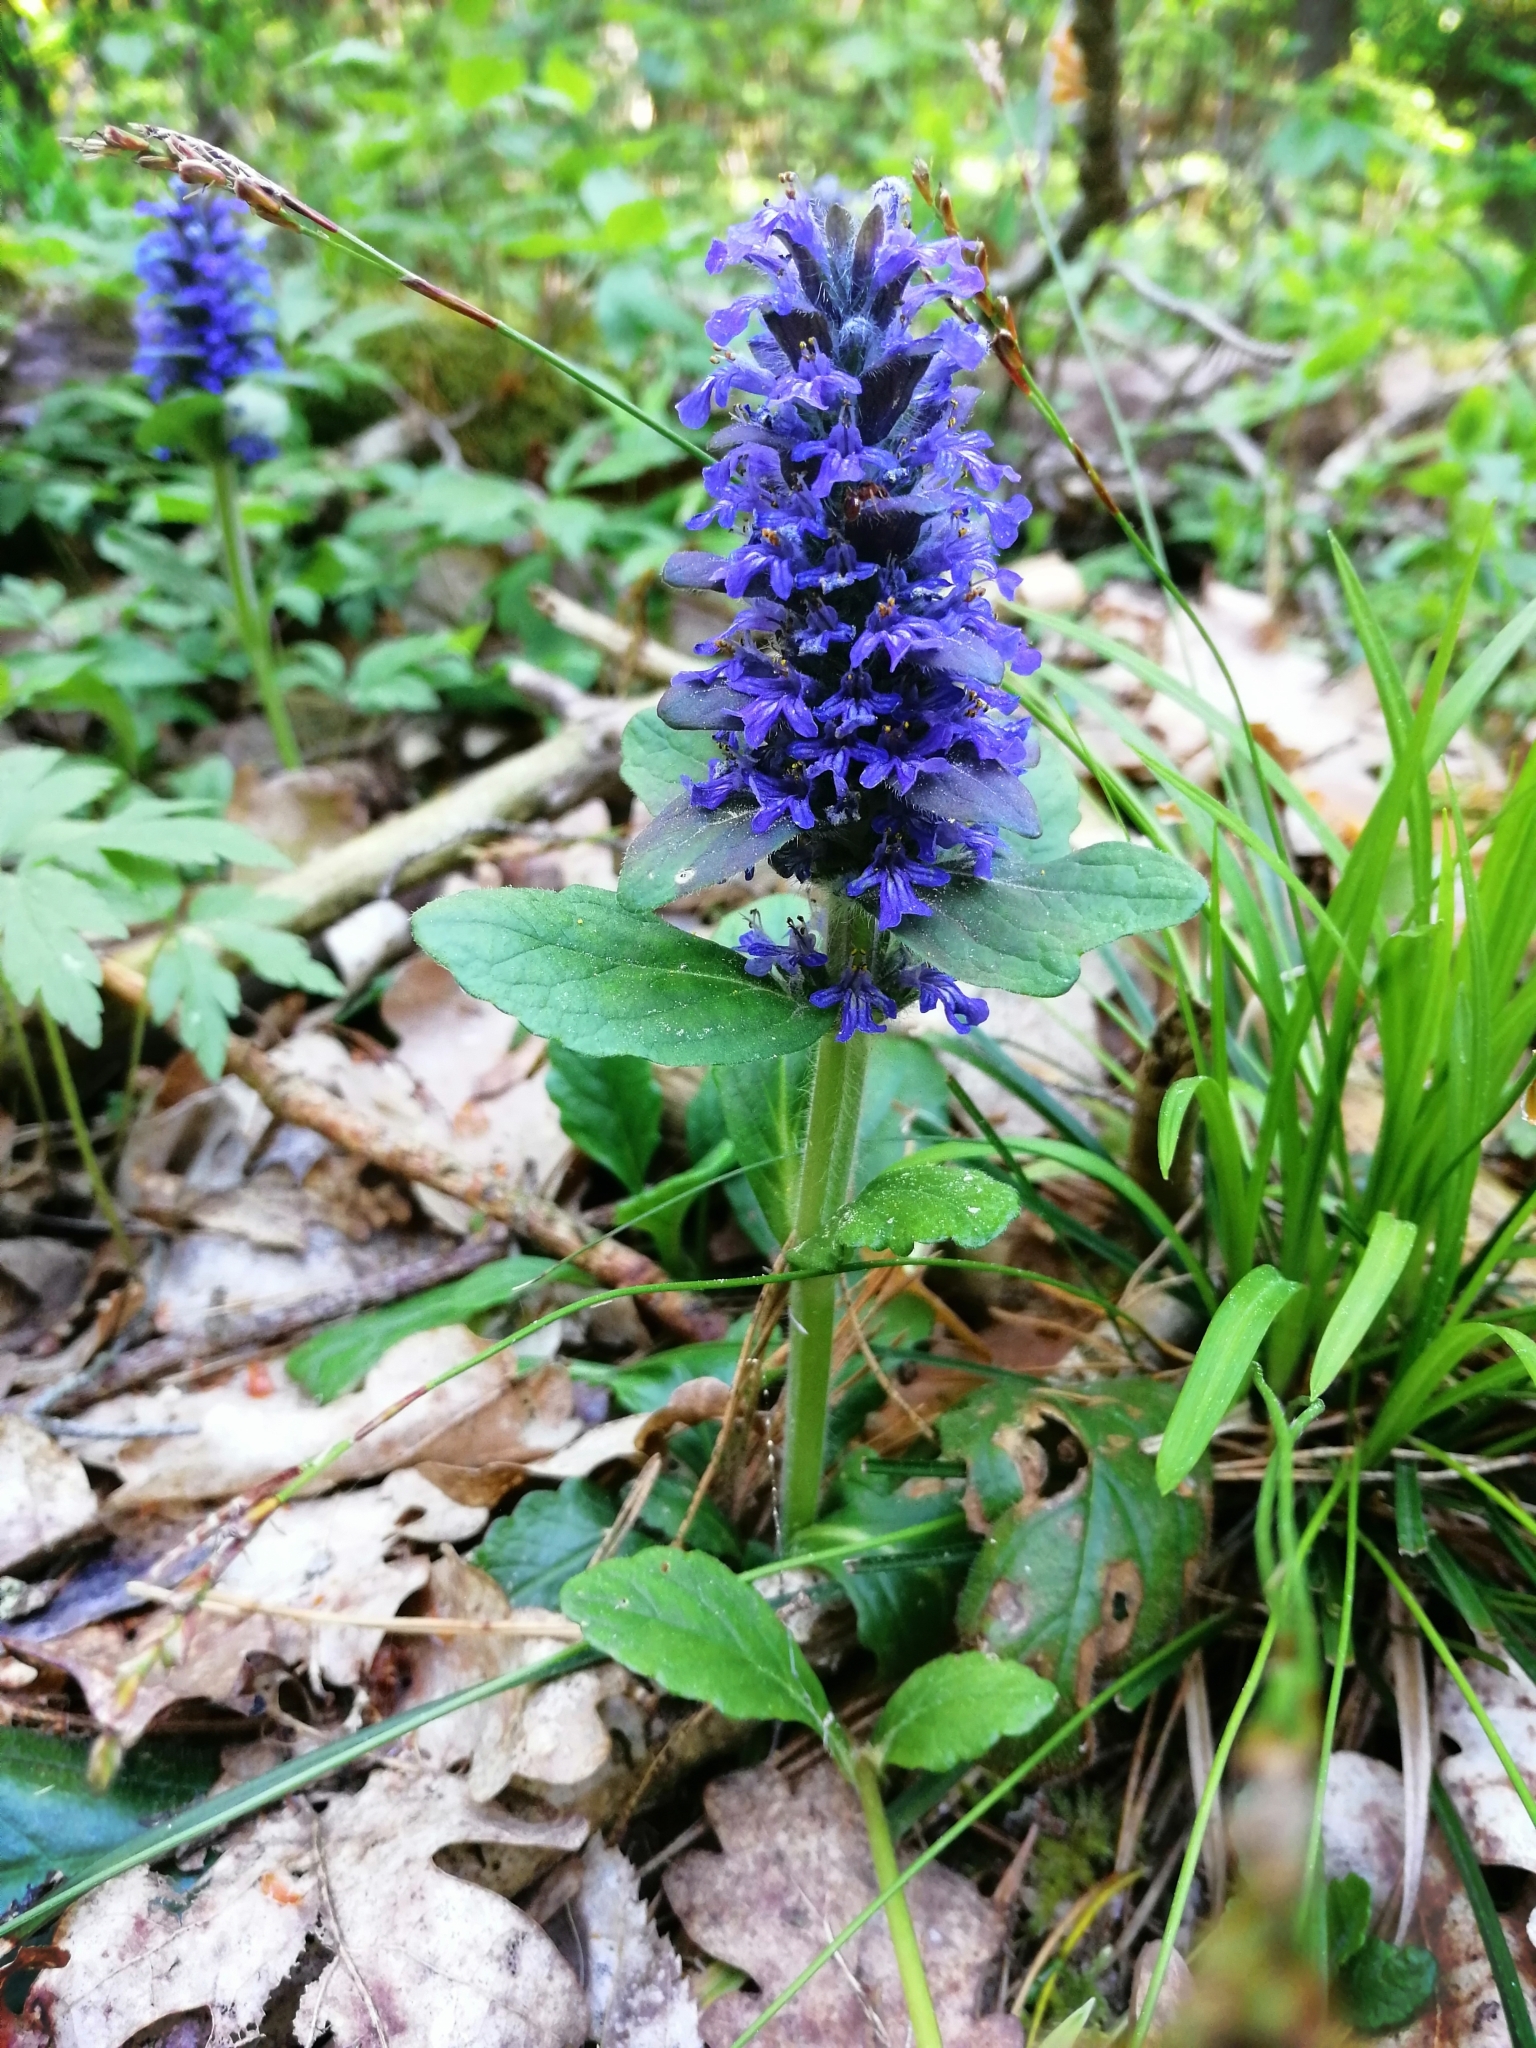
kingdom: Plantae
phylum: Tracheophyta
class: Magnoliopsida
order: Lamiales
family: Lamiaceae
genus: Ajuga
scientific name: Ajuga reptans
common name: Bugle
